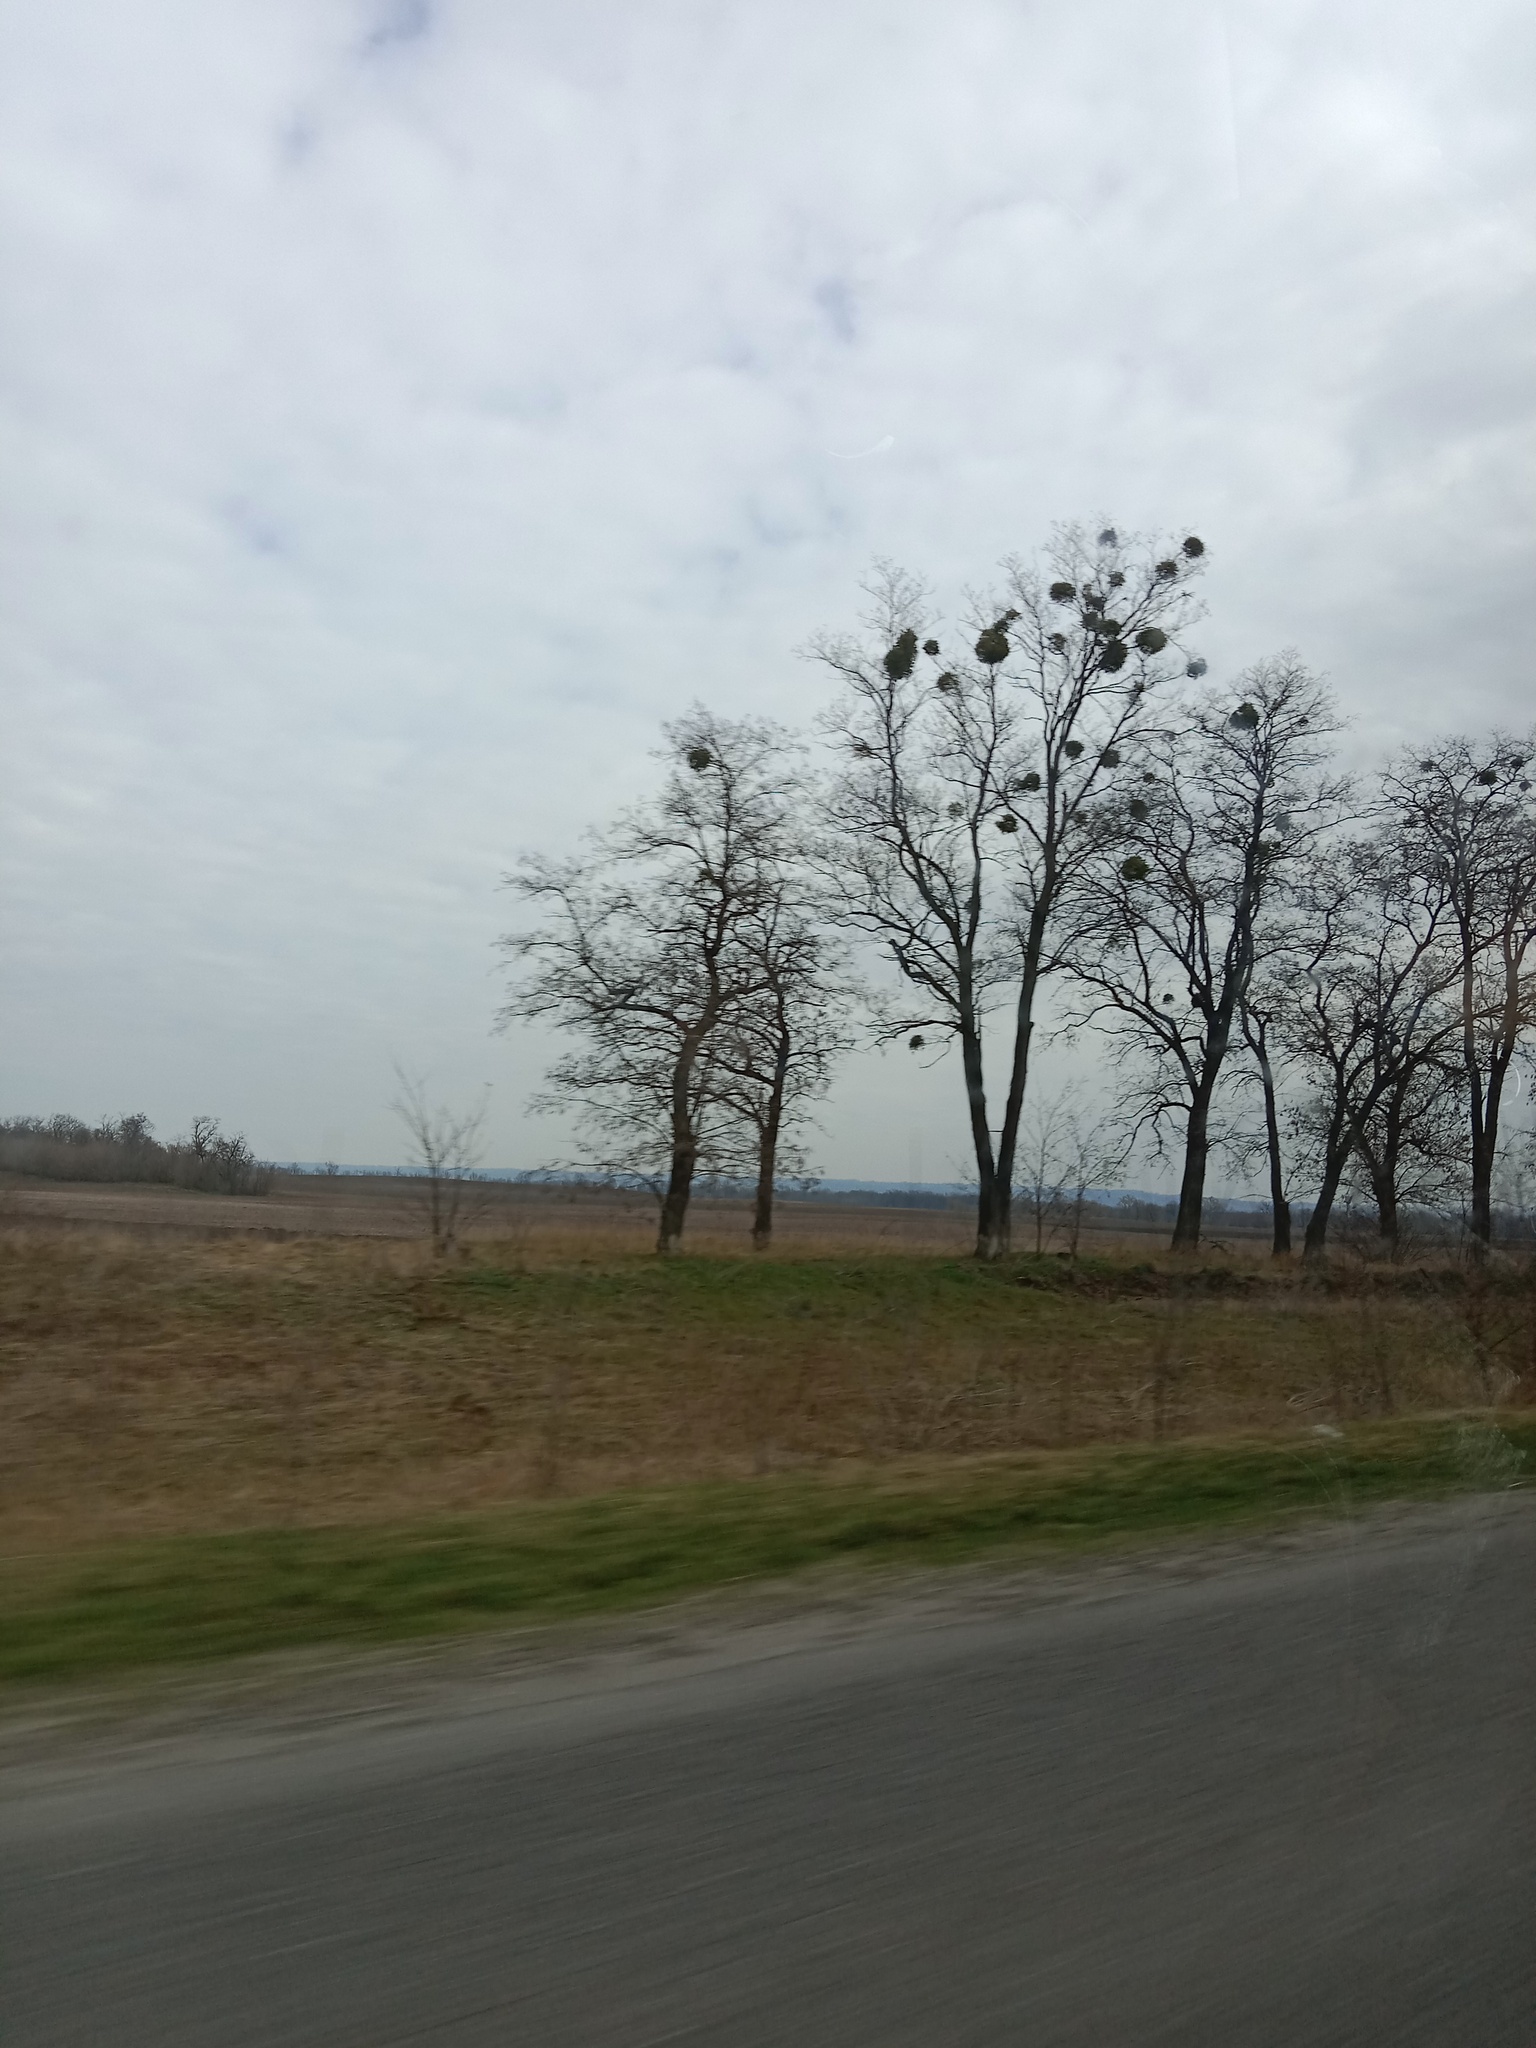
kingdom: Plantae
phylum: Tracheophyta
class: Magnoliopsida
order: Santalales
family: Viscaceae
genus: Viscum
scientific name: Viscum album
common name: Mistletoe
